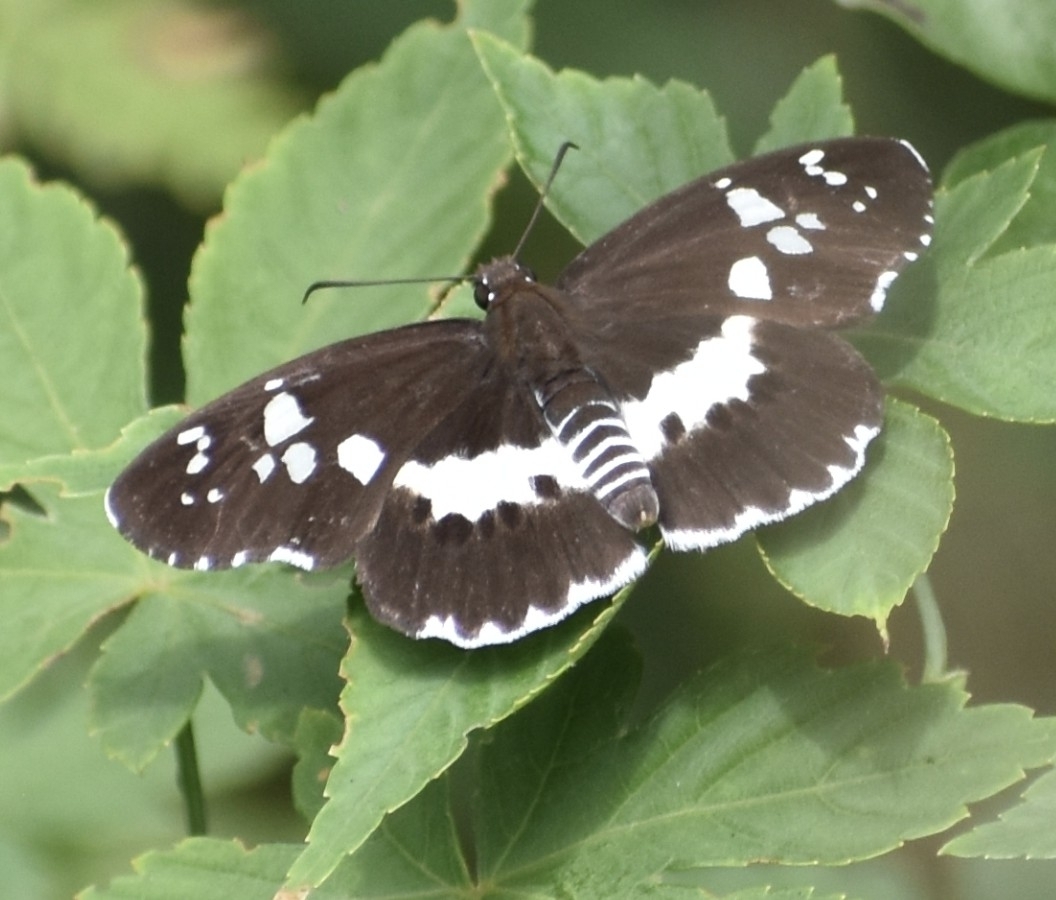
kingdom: Animalia
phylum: Arthropoda
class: Insecta
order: Lepidoptera
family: Hesperiidae
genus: Daimio
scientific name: Daimio tethys
